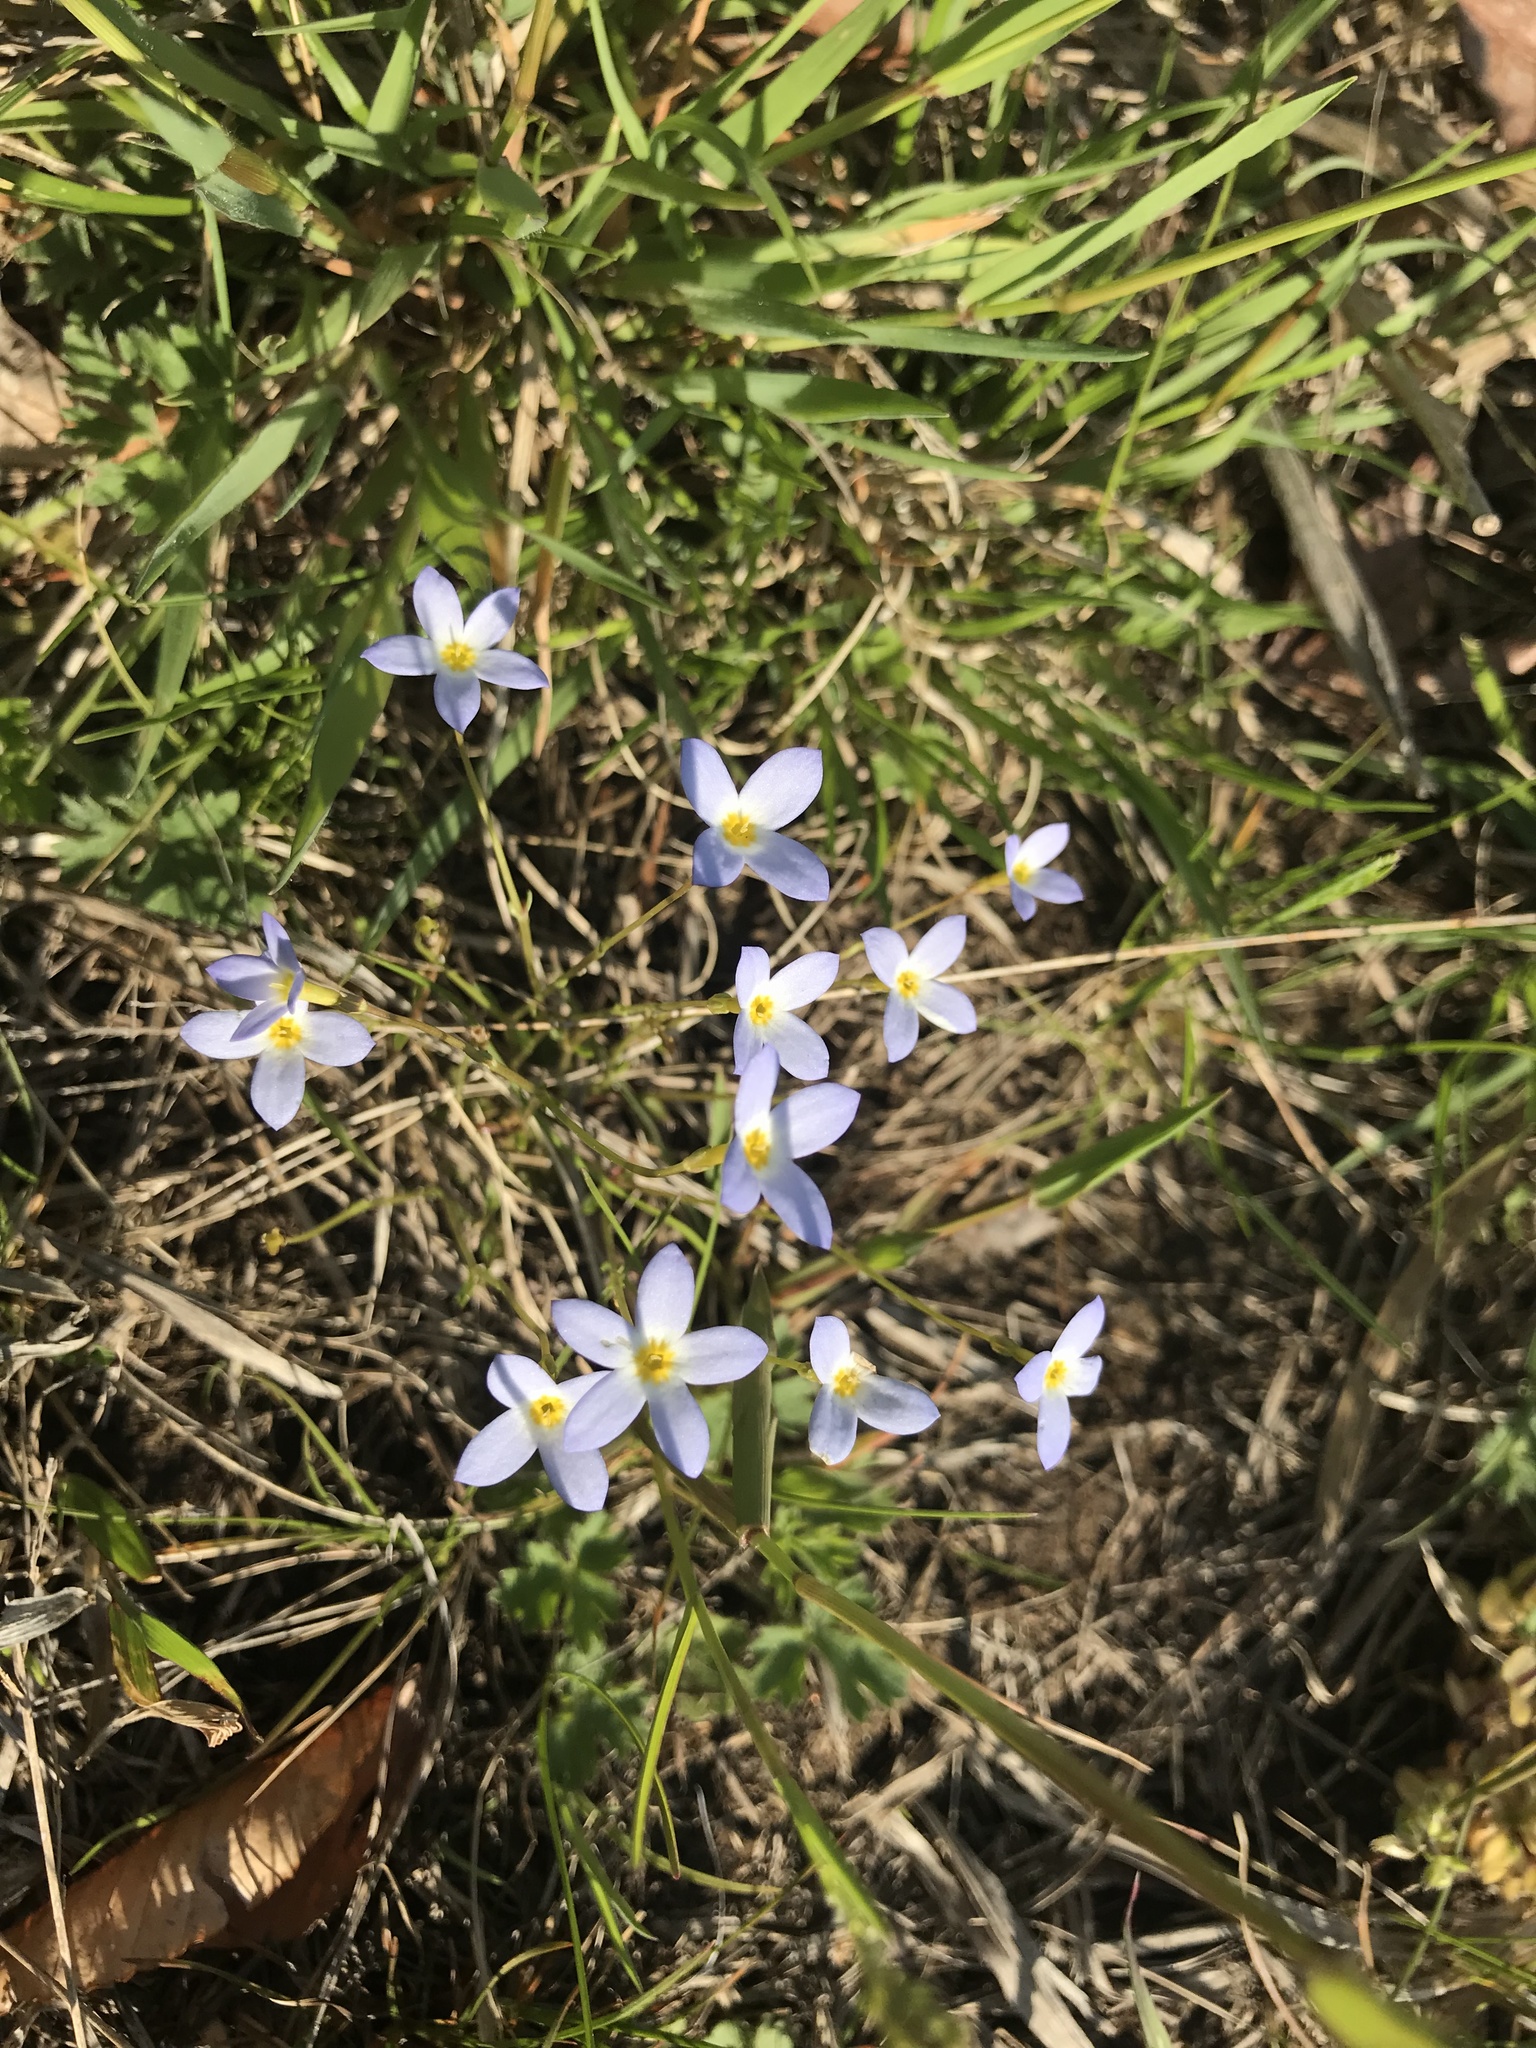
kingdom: Plantae
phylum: Tracheophyta
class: Magnoliopsida
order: Gentianales
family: Rubiaceae
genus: Houstonia
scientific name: Houstonia caerulea
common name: Bluets
